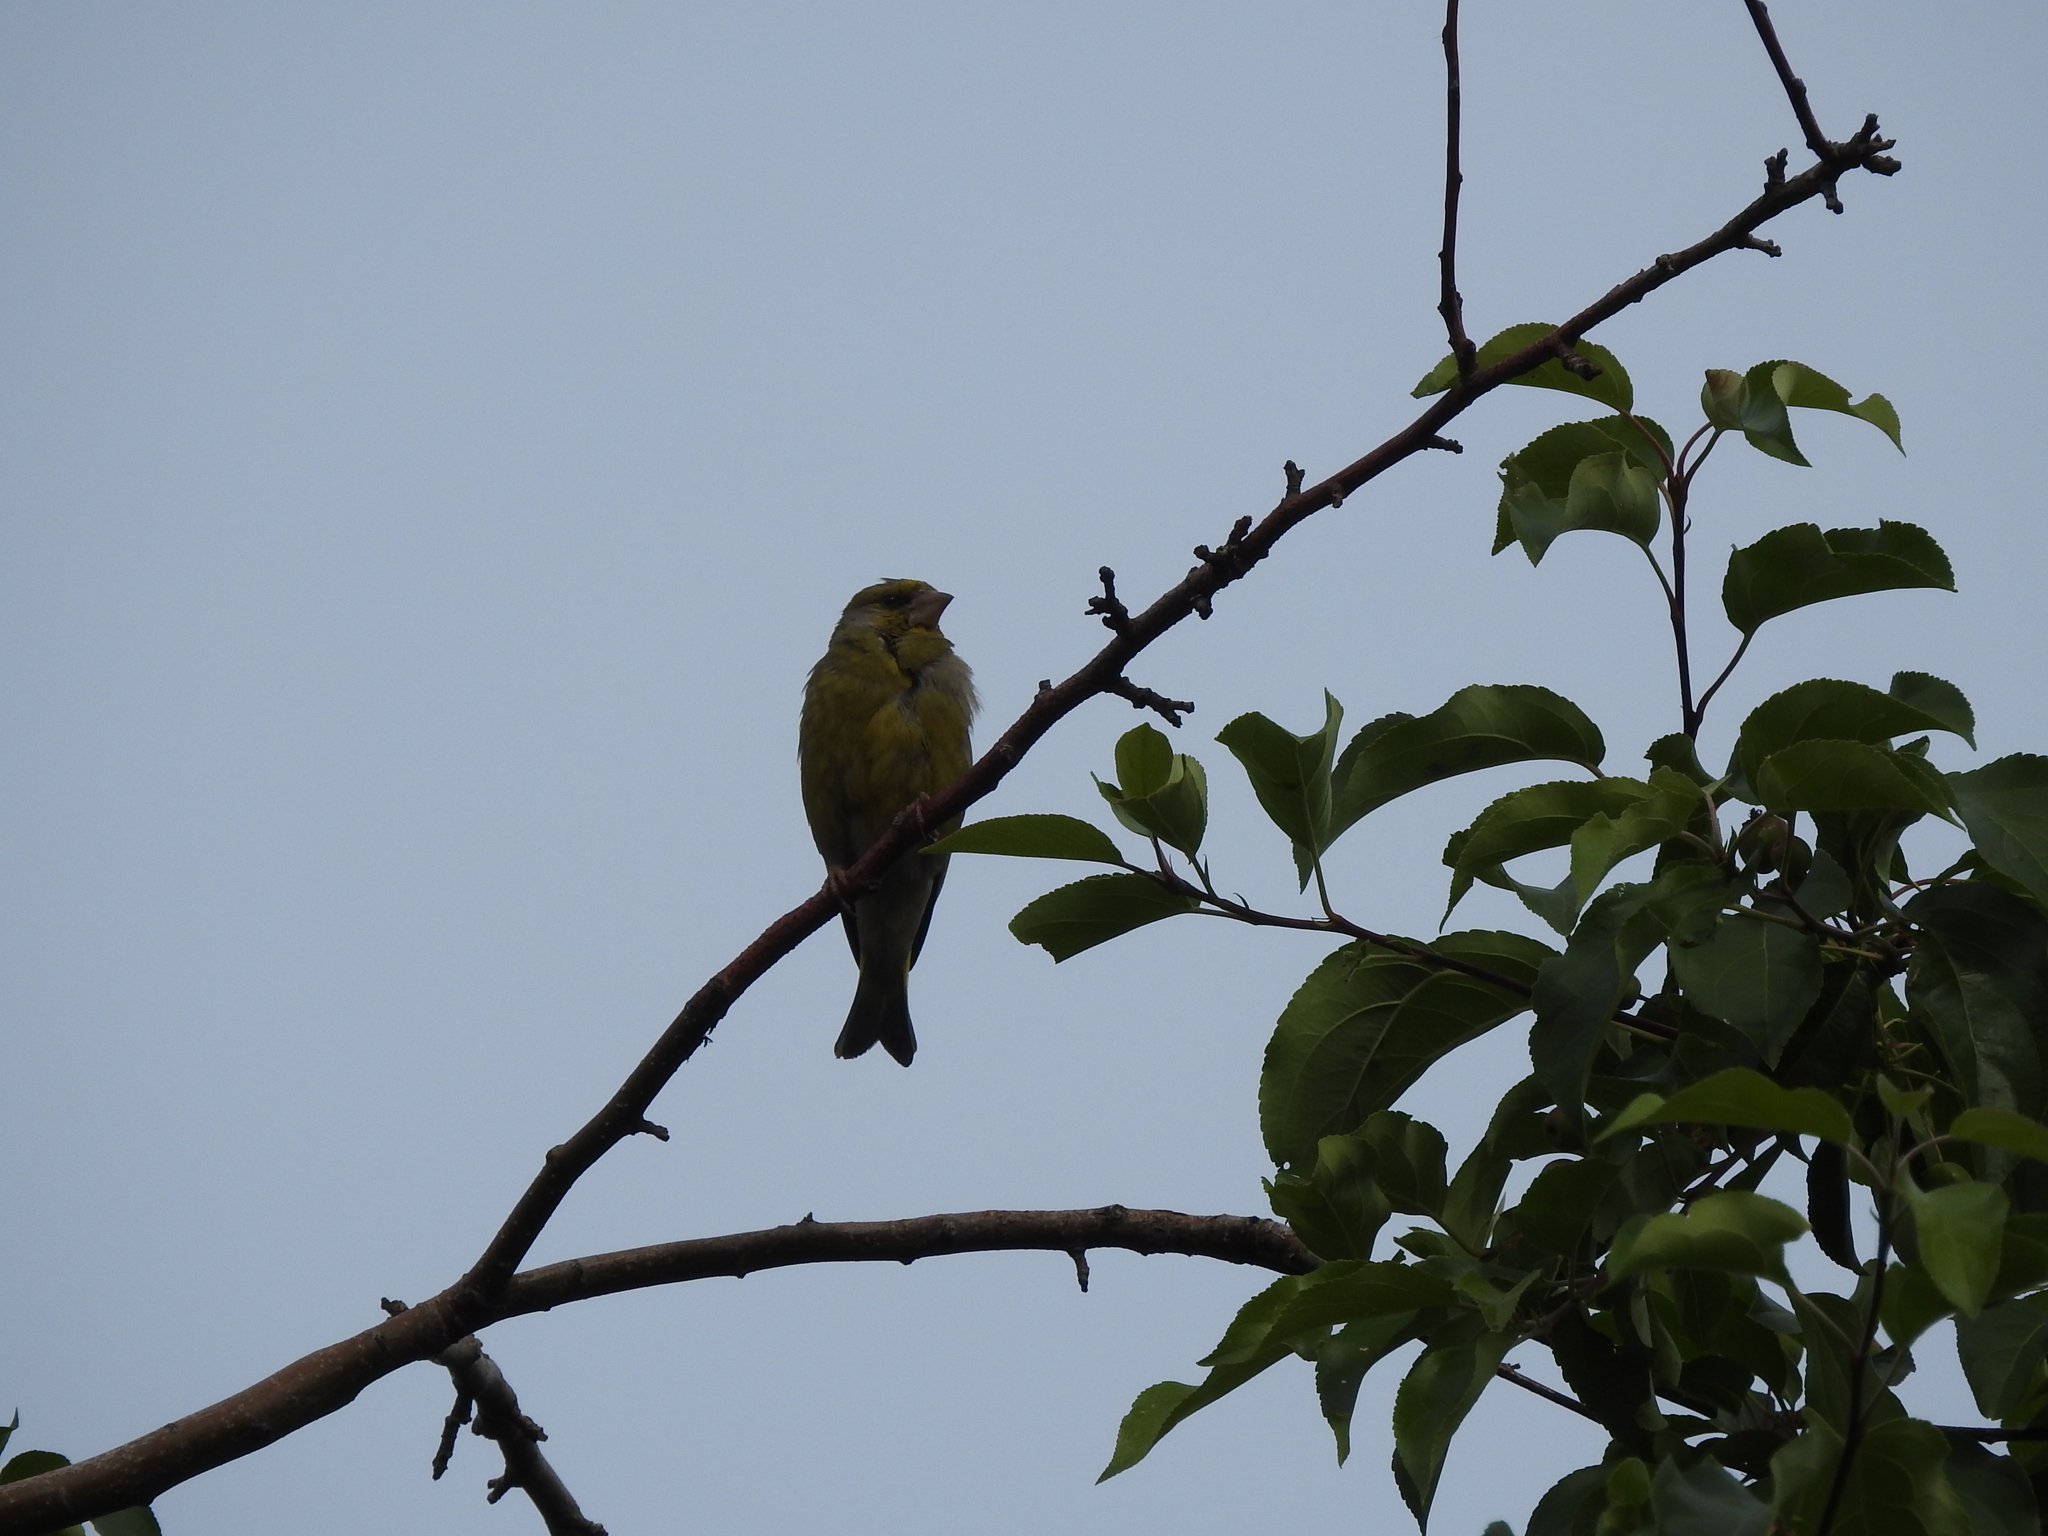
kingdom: Plantae
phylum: Tracheophyta
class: Liliopsida
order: Poales
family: Poaceae
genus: Chloris
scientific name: Chloris chloris
